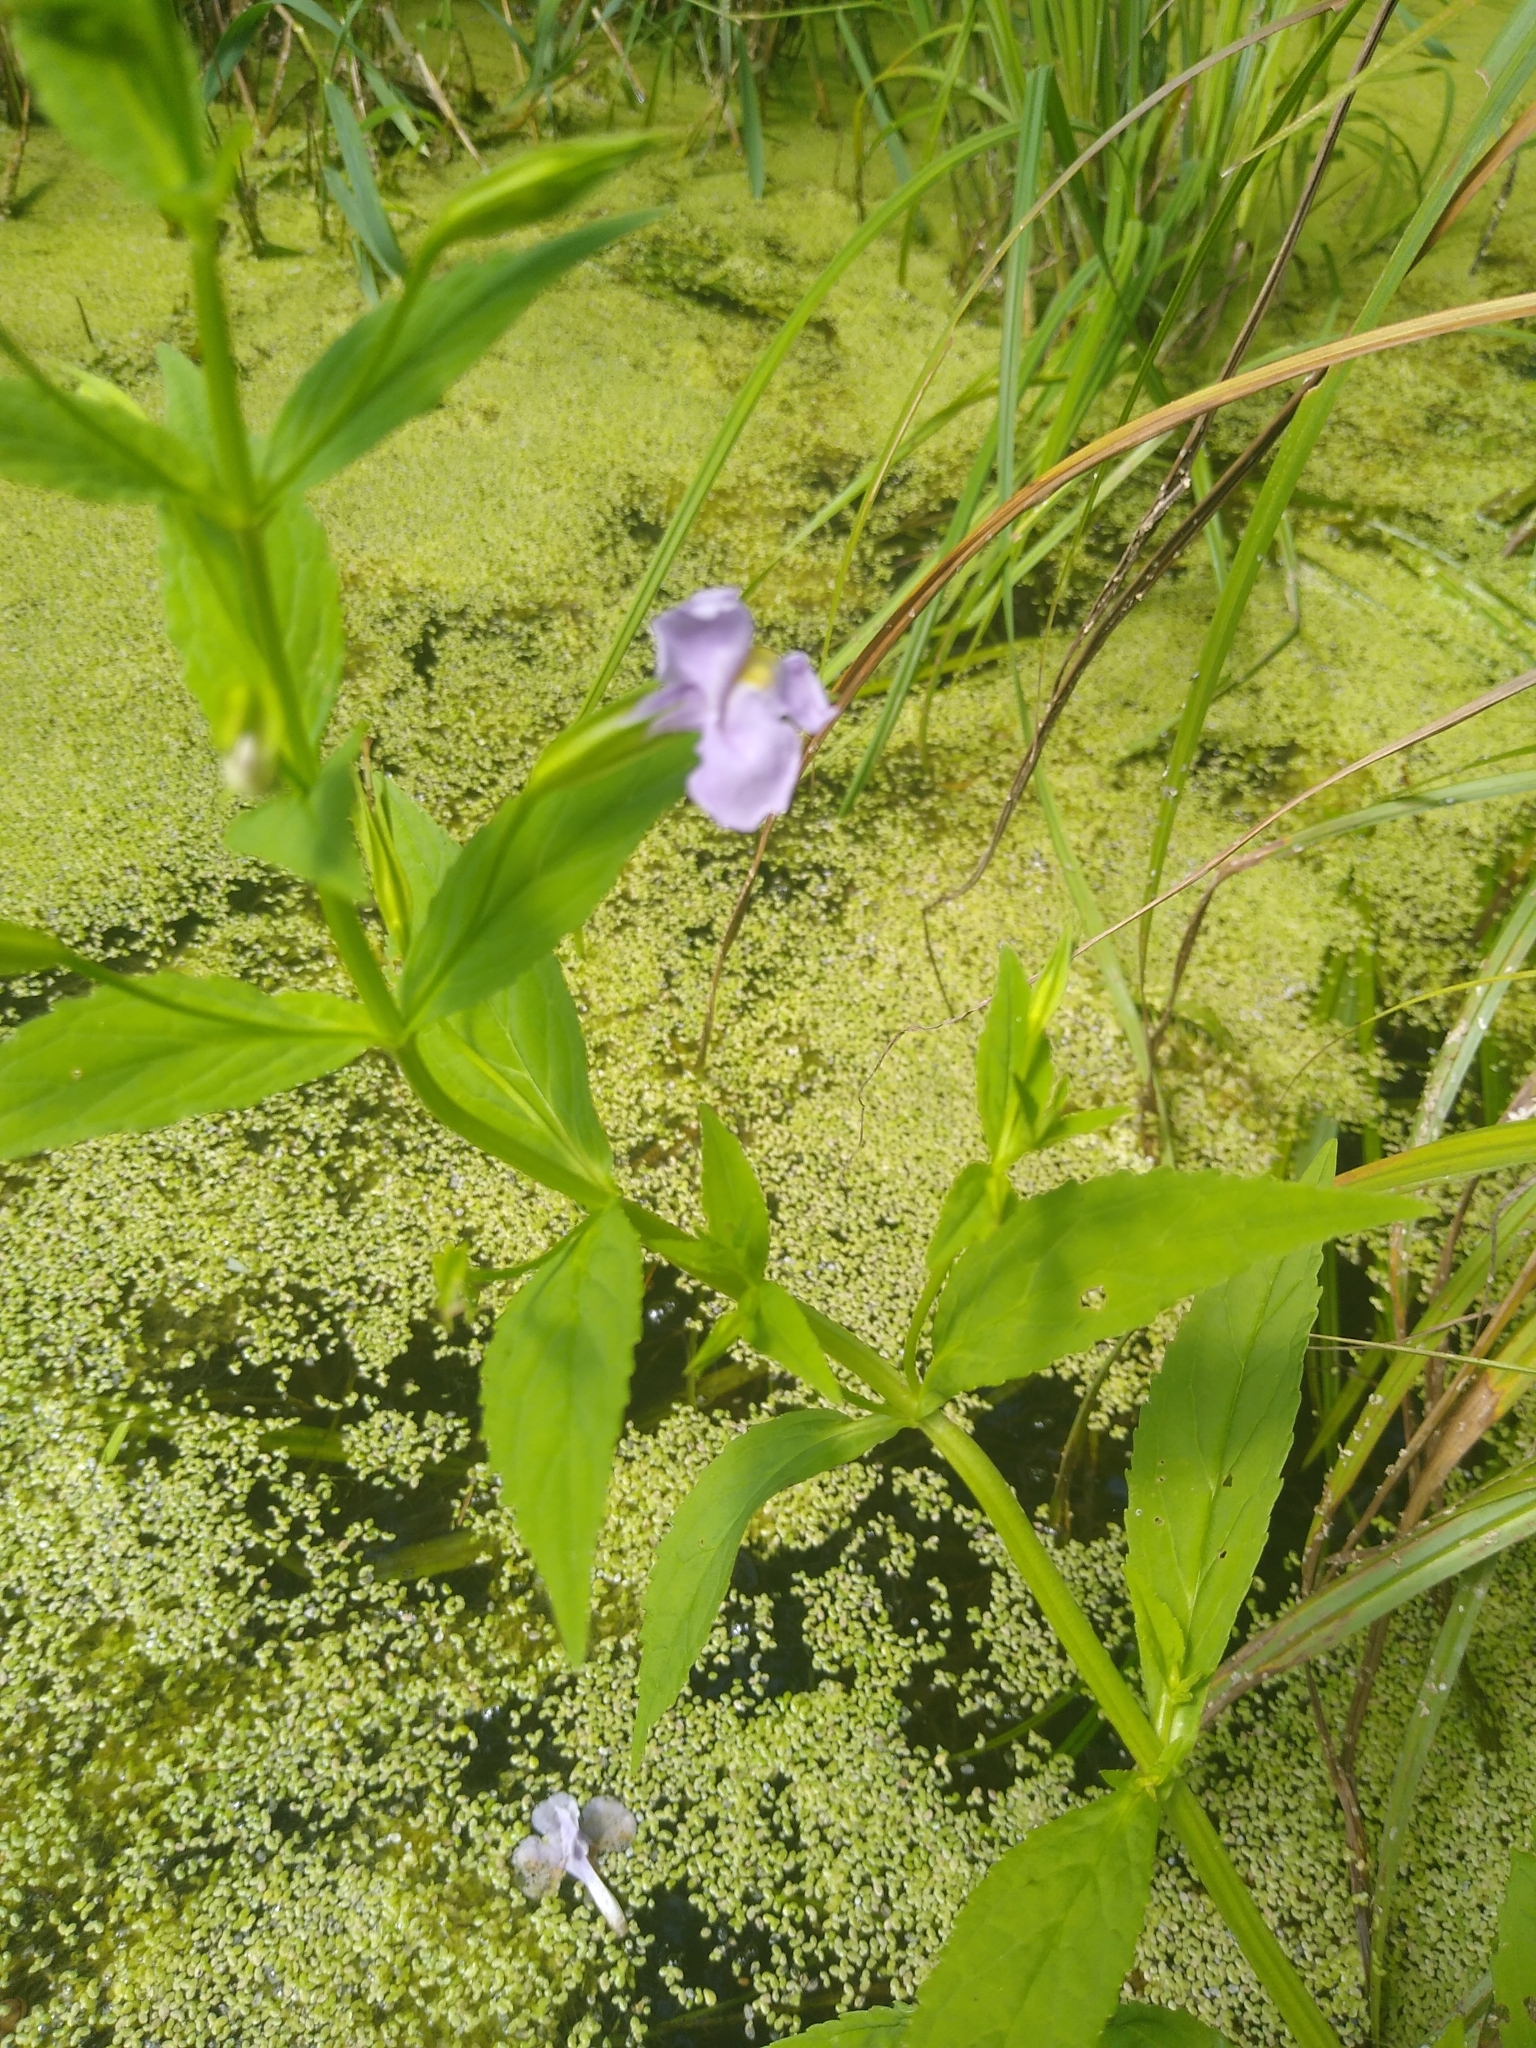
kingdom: Plantae
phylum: Tracheophyta
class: Magnoliopsida
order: Lamiales
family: Phrymaceae
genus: Mimulus
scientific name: Mimulus ringens
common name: Allegheny monkeyflower
